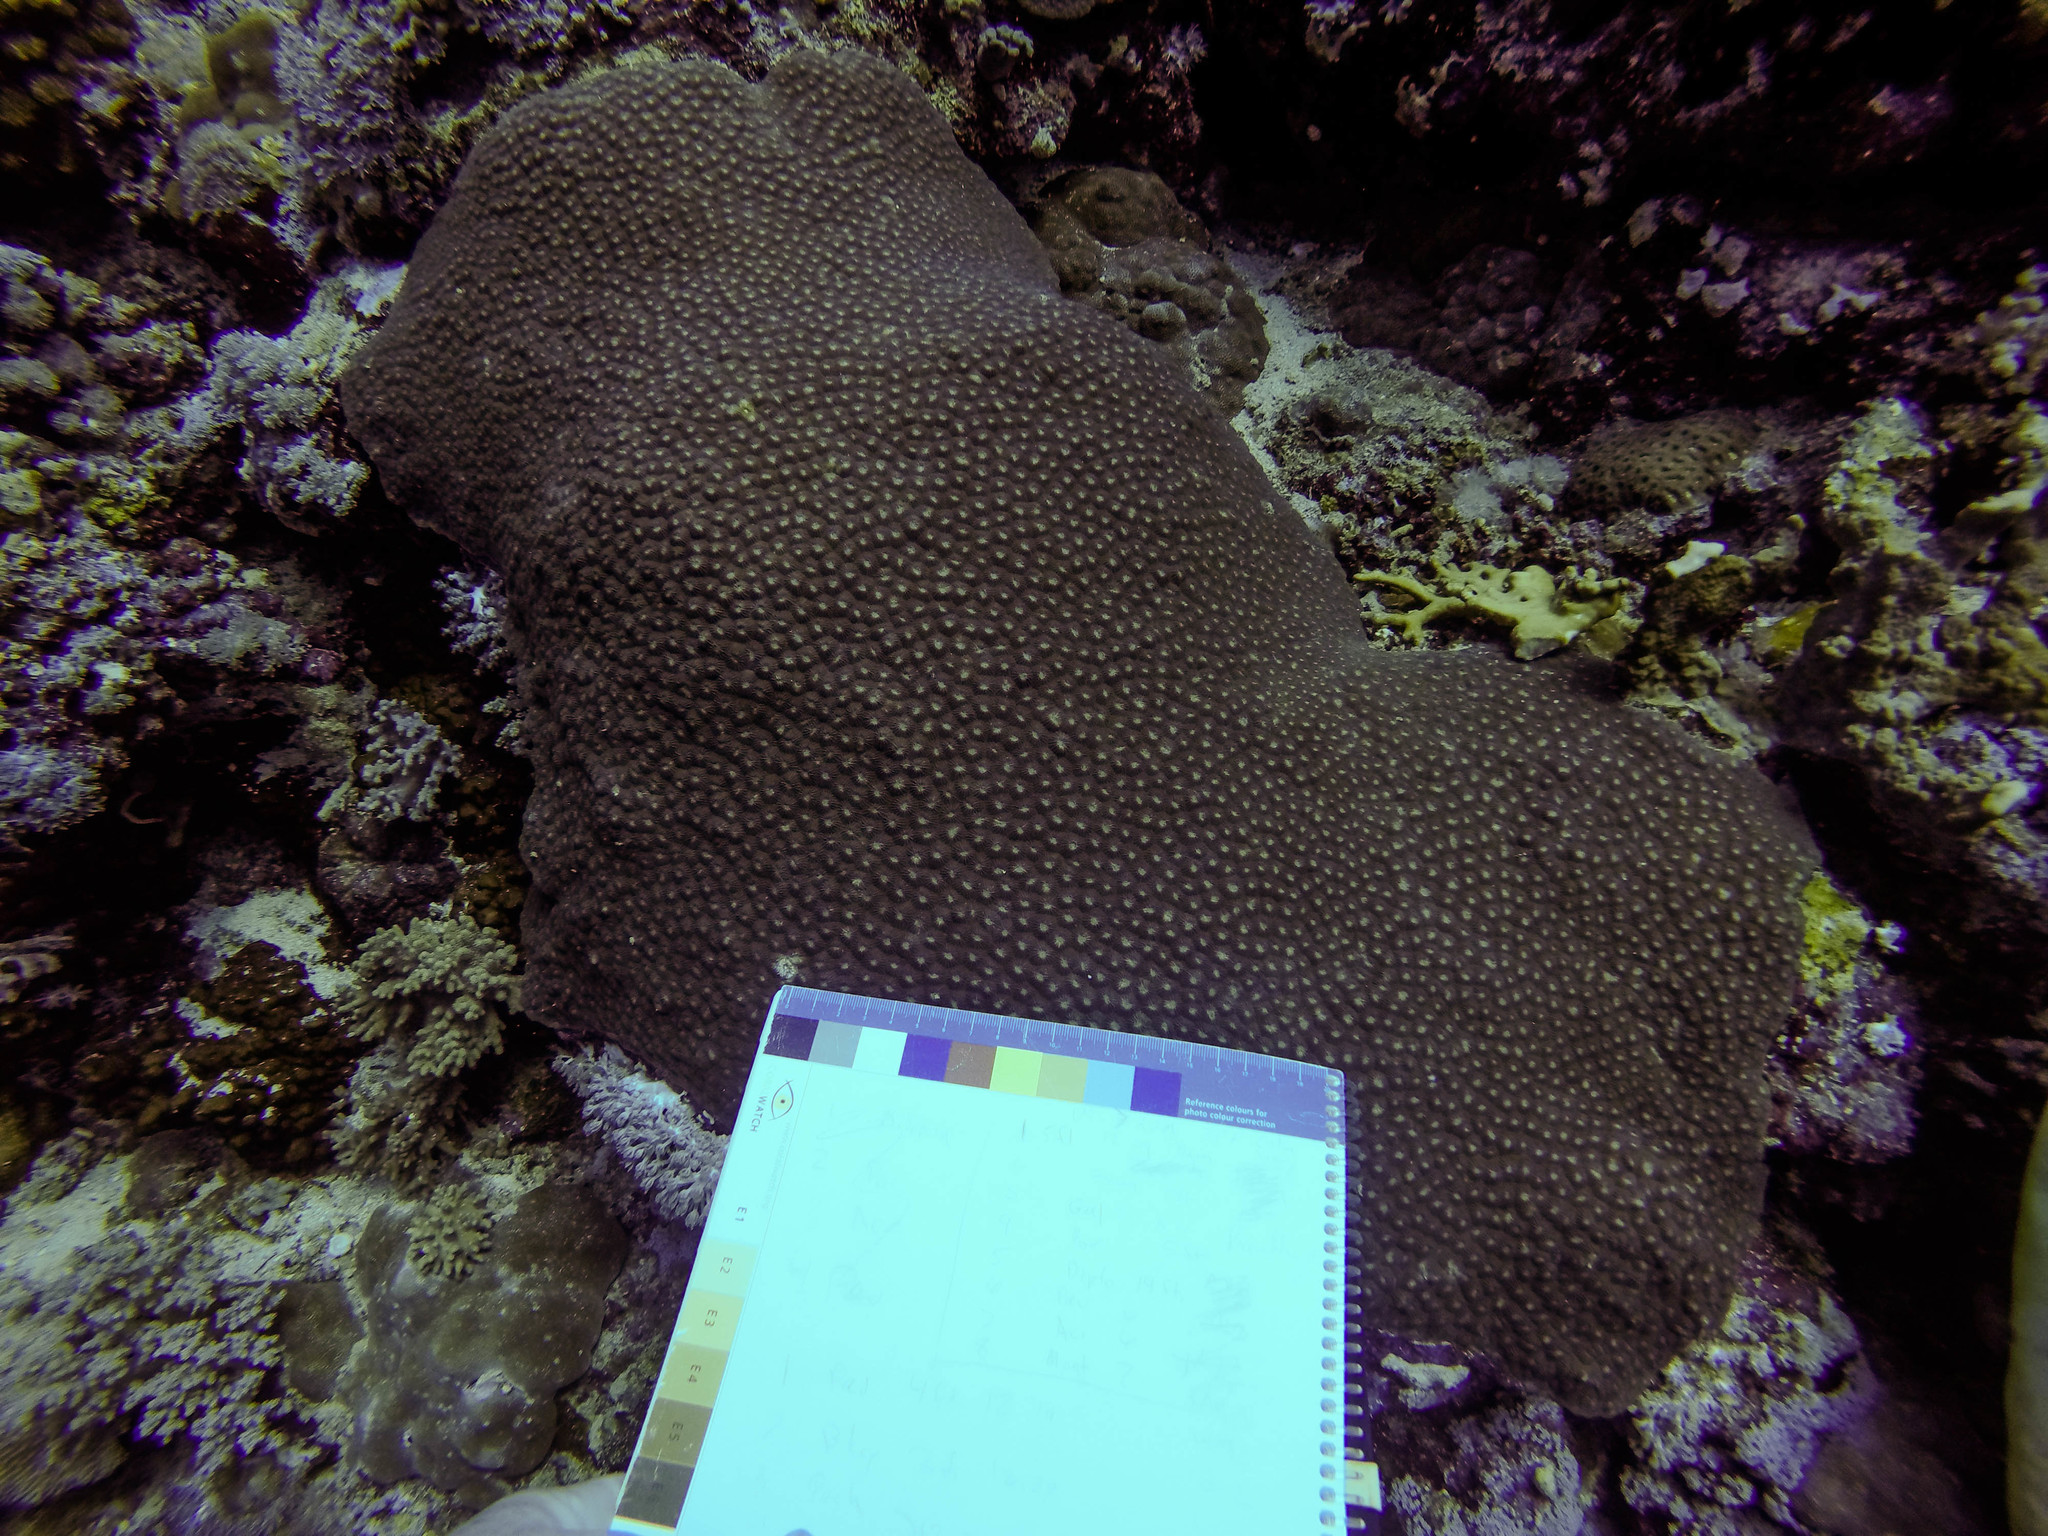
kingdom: Animalia
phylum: Cnidaria
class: Anthozoa
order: Scleractinia
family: Diploastraeidae
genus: Diploastrea
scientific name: Diploastrea heliopora
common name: Double-star coral
